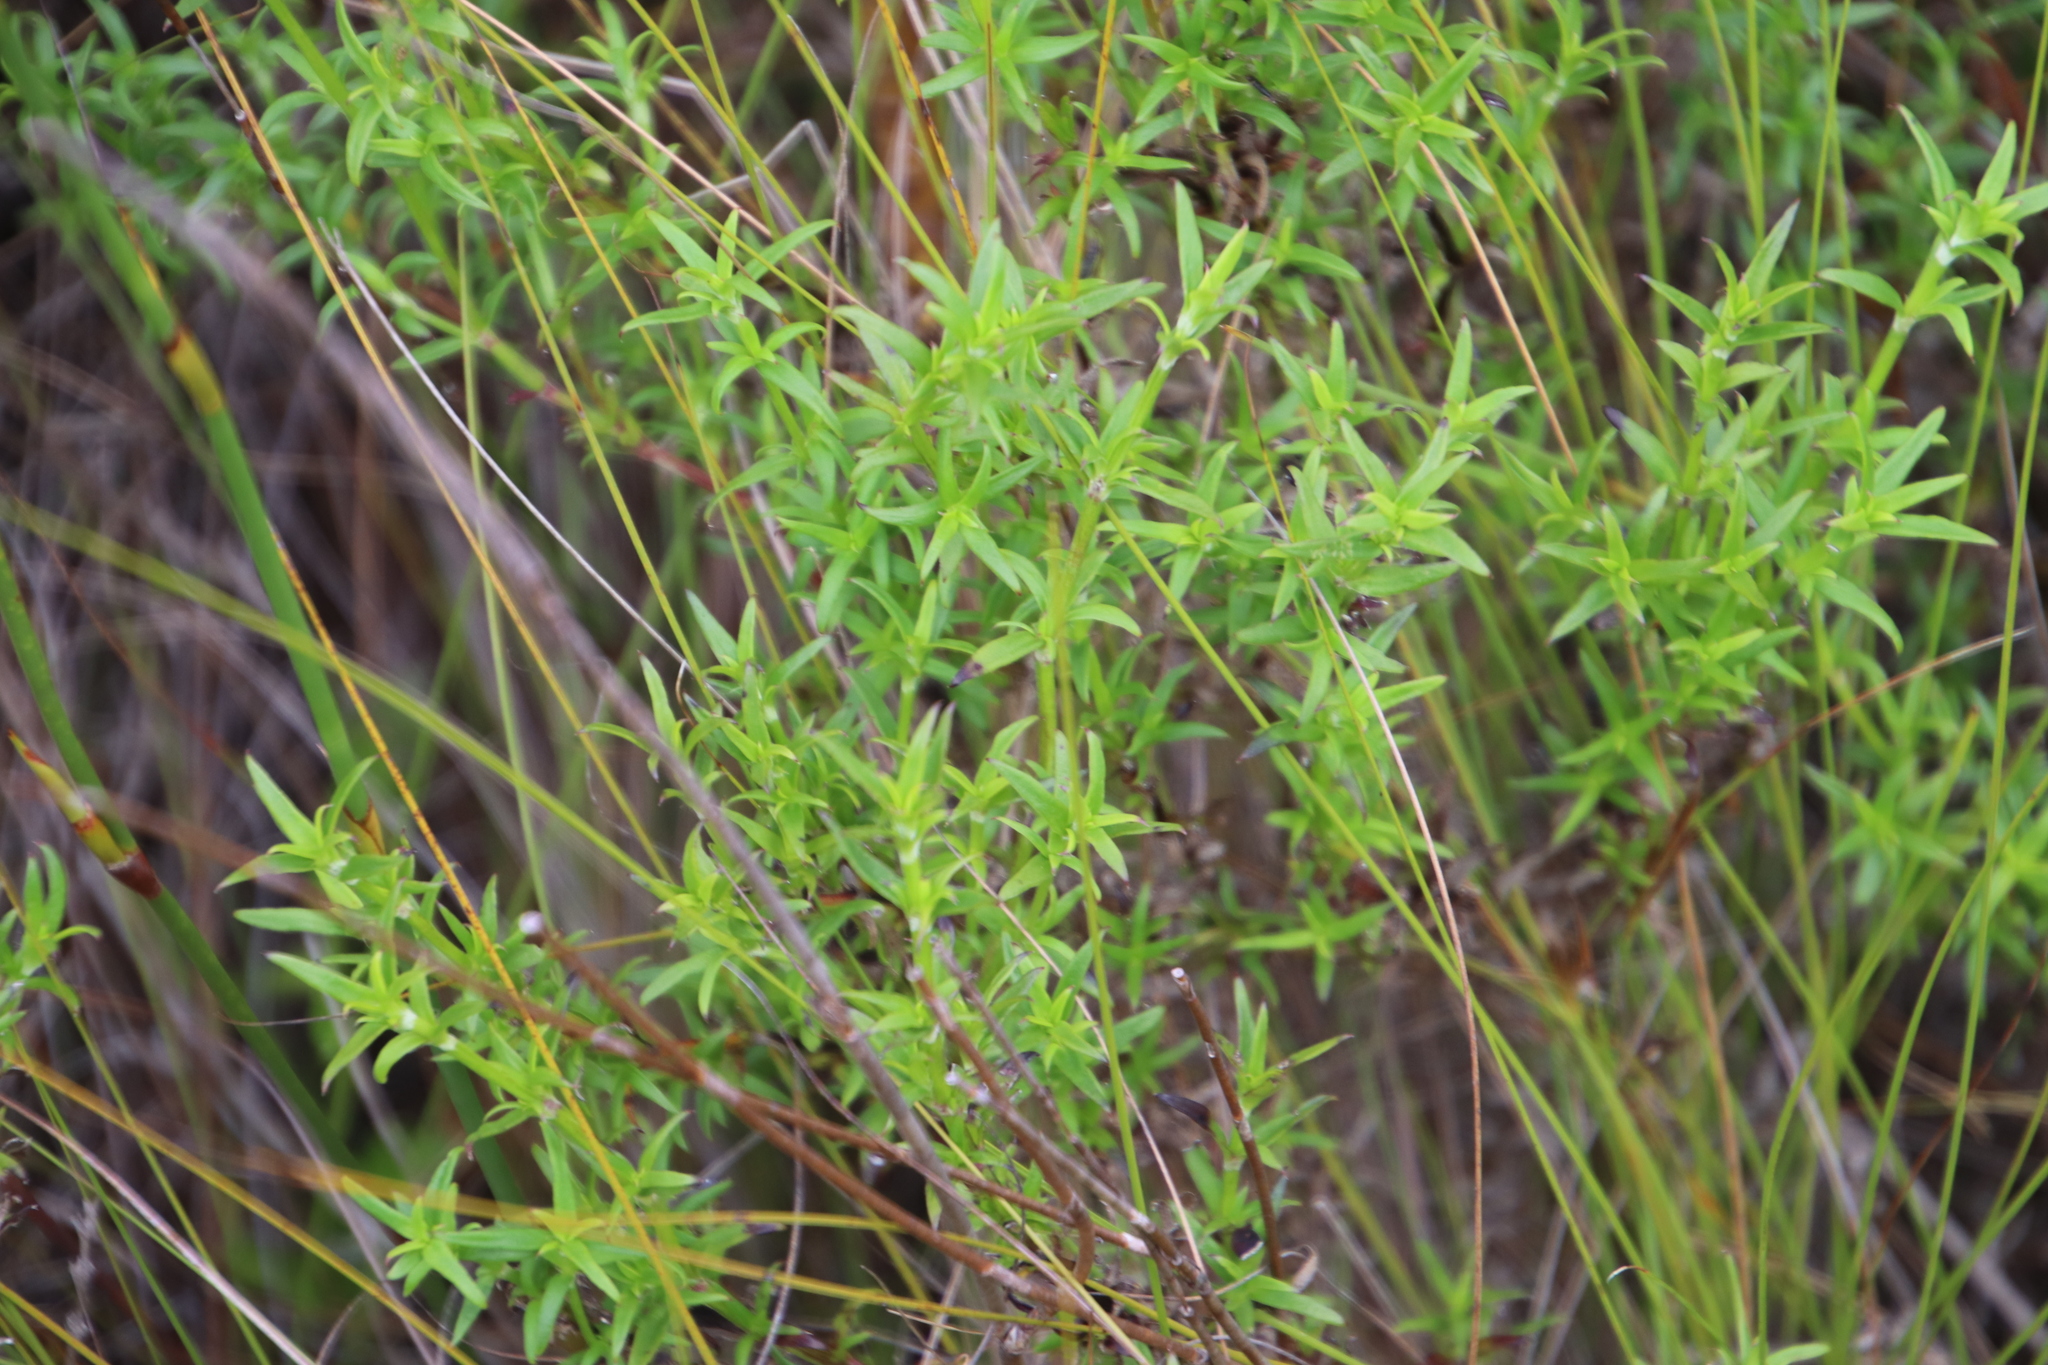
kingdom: Plantae
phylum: Tracheophyta
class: Magnoliopsida
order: Gentianales
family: Rubiaceae
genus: Carpacoce
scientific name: Carpacoce spermacocea
